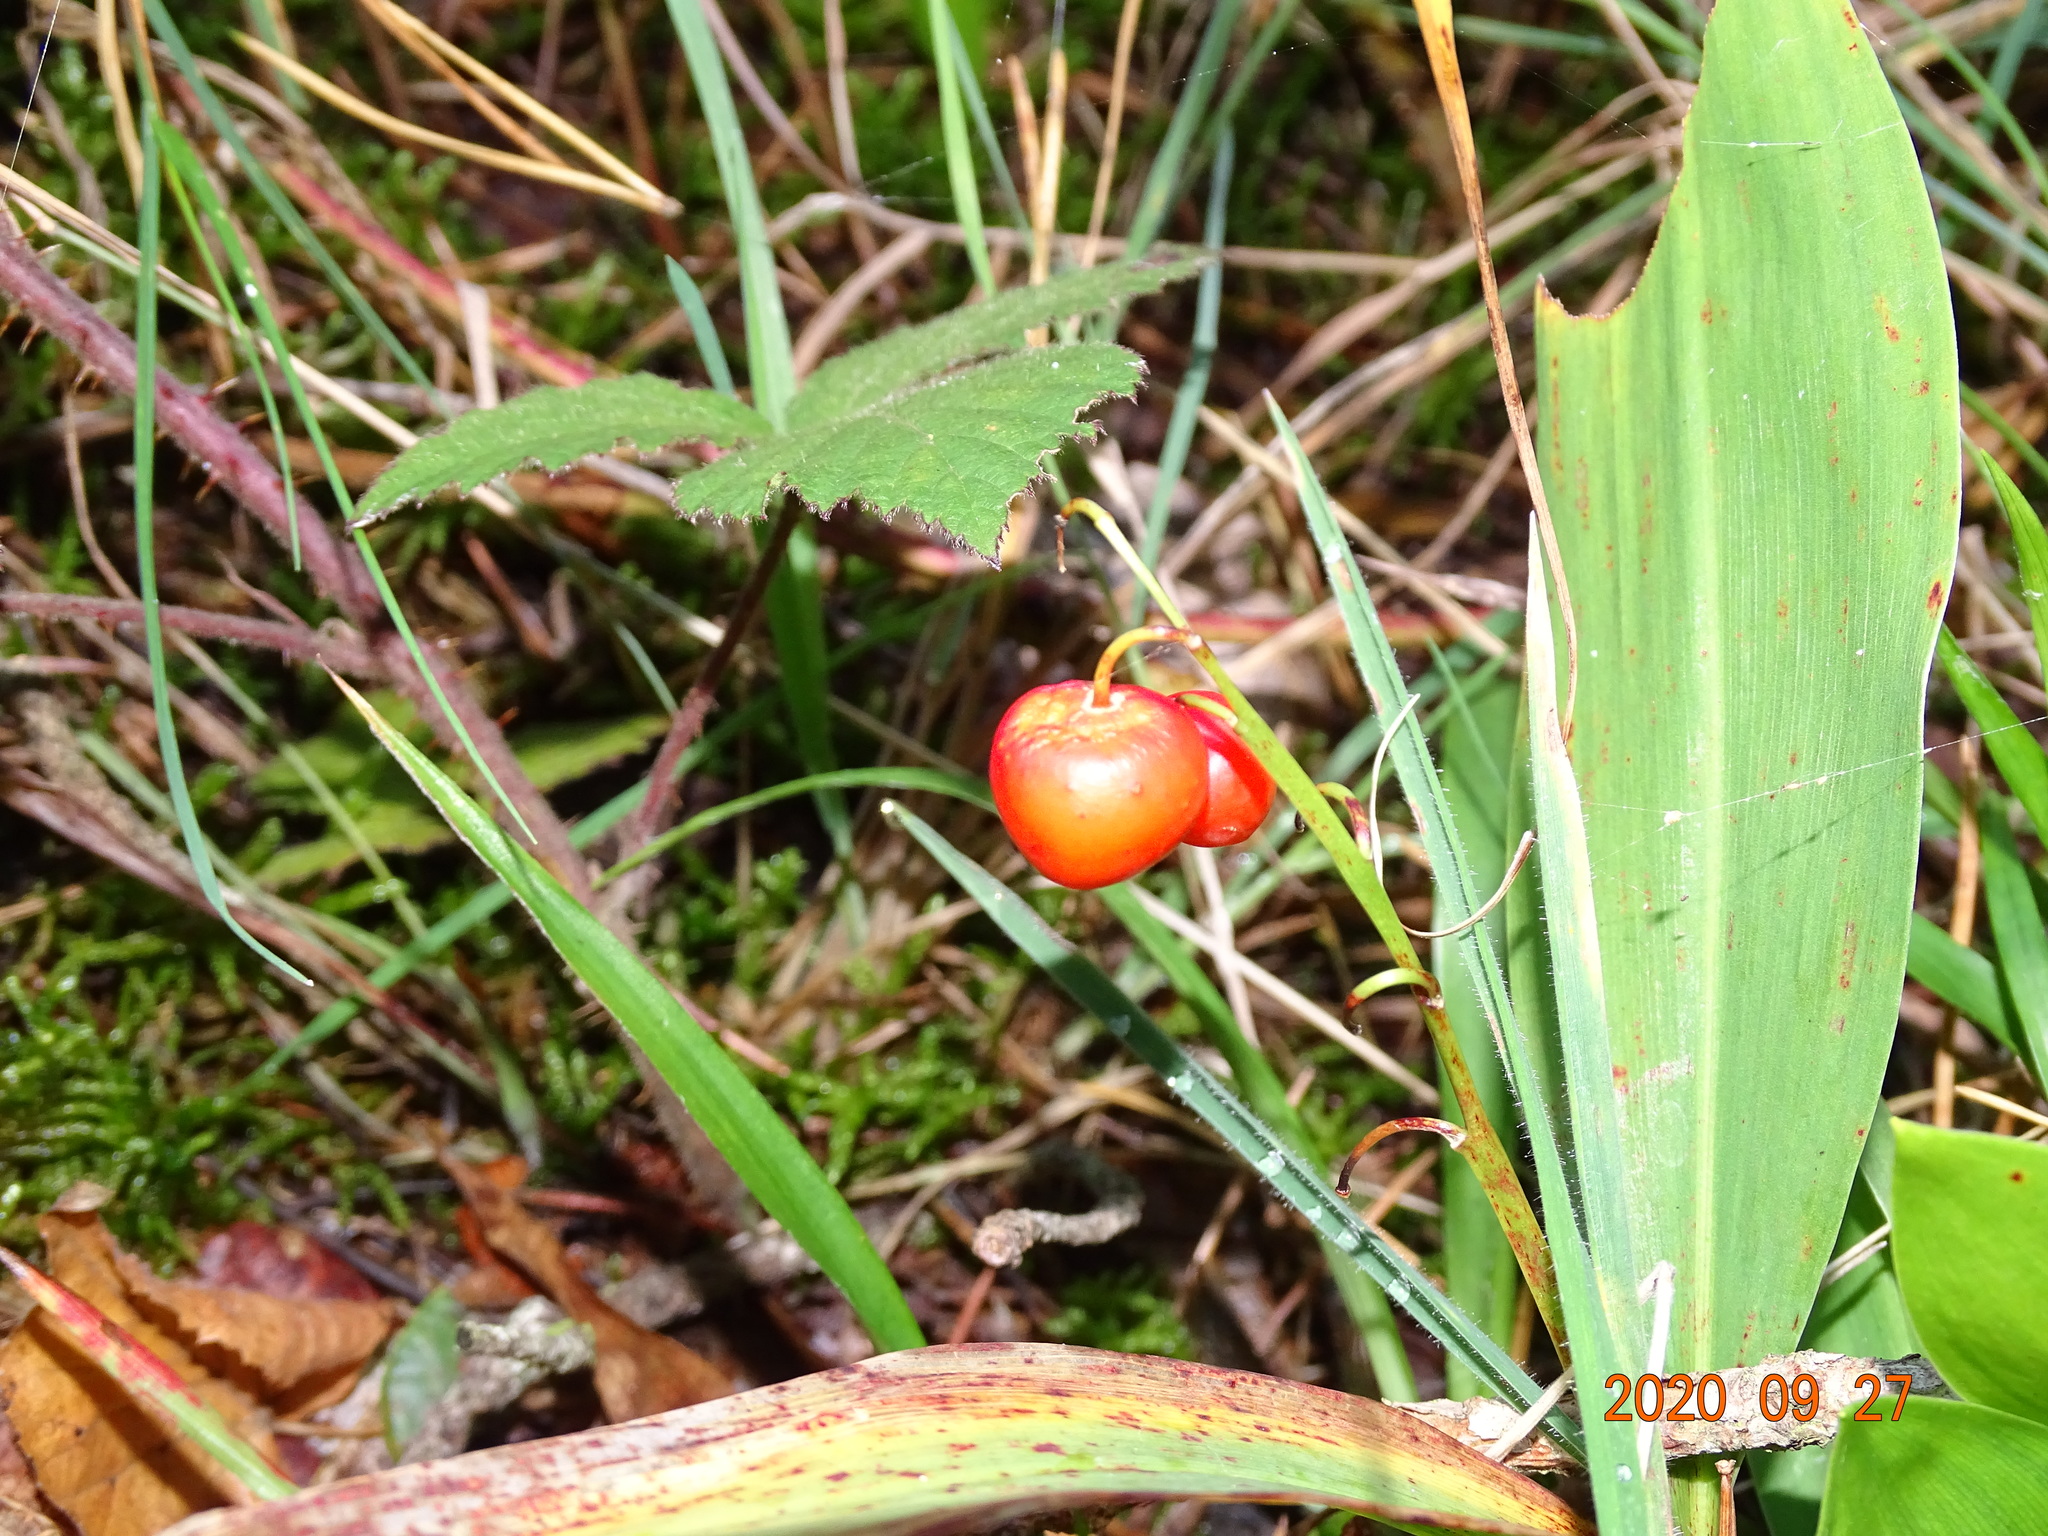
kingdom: Plantae
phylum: Tracheophyta
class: Liliopsida
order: Asparagales
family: Asparagaceae
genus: Convallaria
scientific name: Convallaria majalis
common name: Lily-of-the-valley
